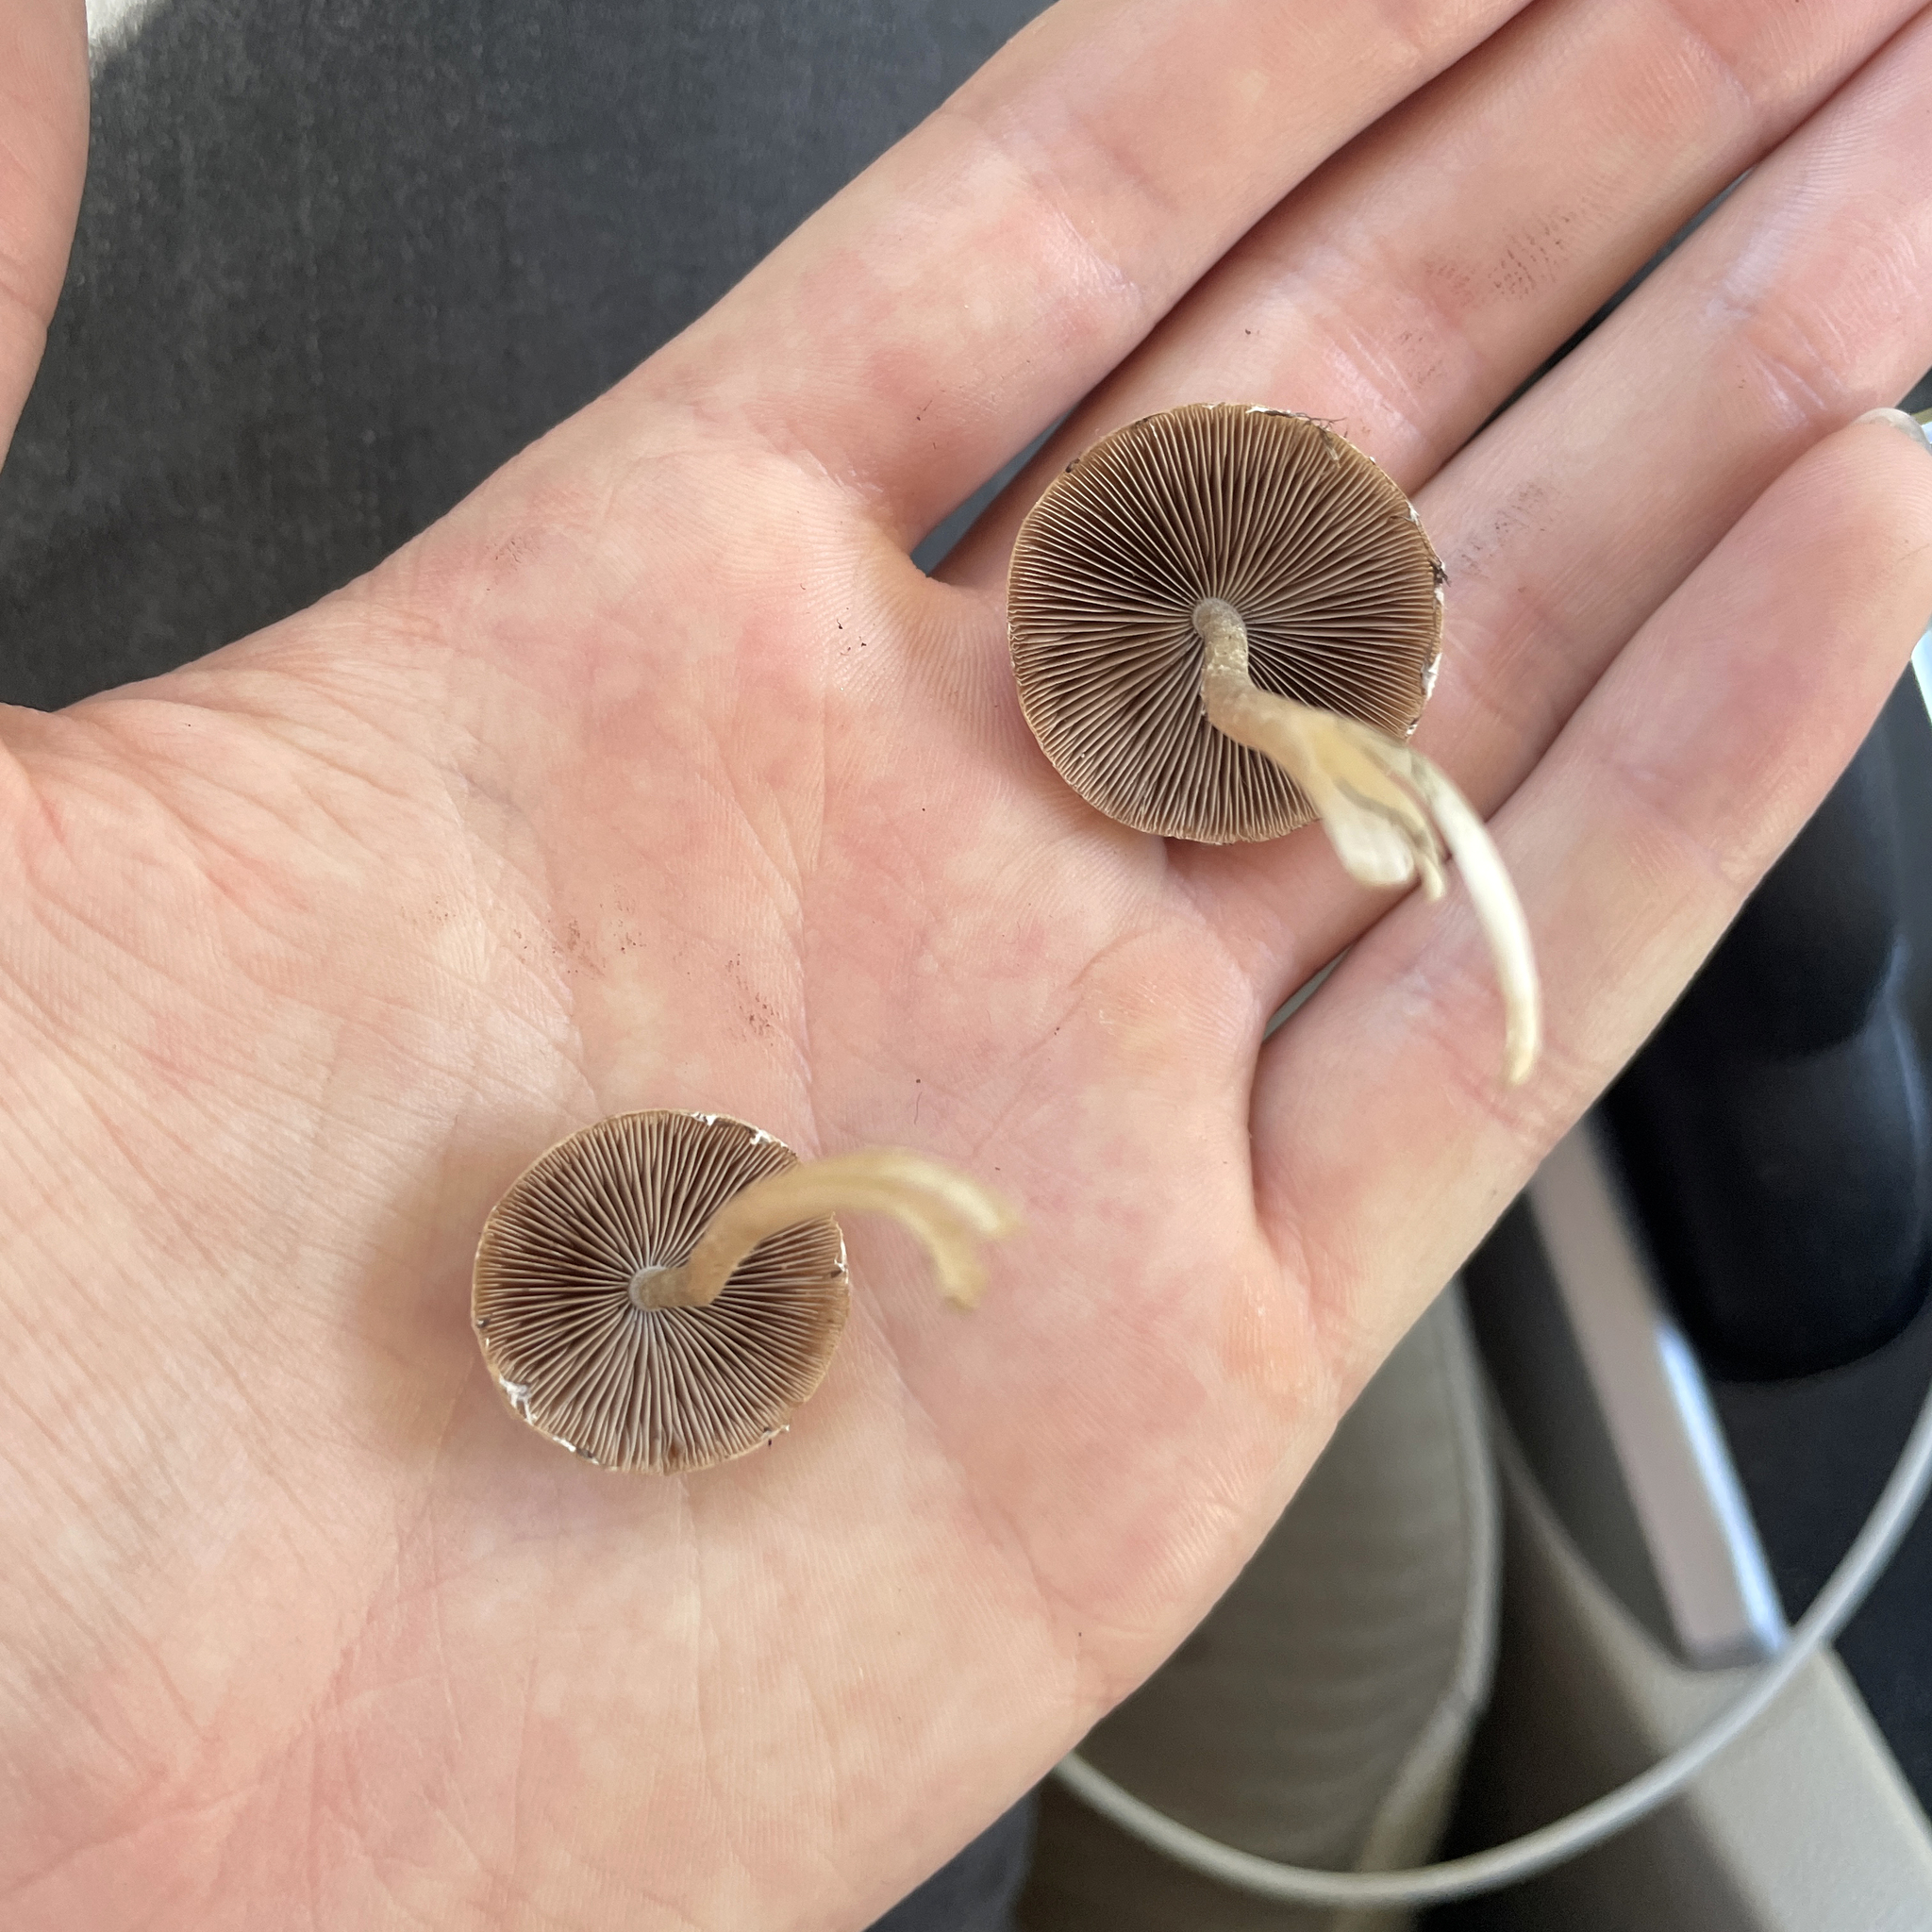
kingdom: Fungi
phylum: Basidiomycota
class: Agaricomycetes
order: Agaricales
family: Psathyrellaceae
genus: Candolleomyces
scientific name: Candolleomyces candolleanus
